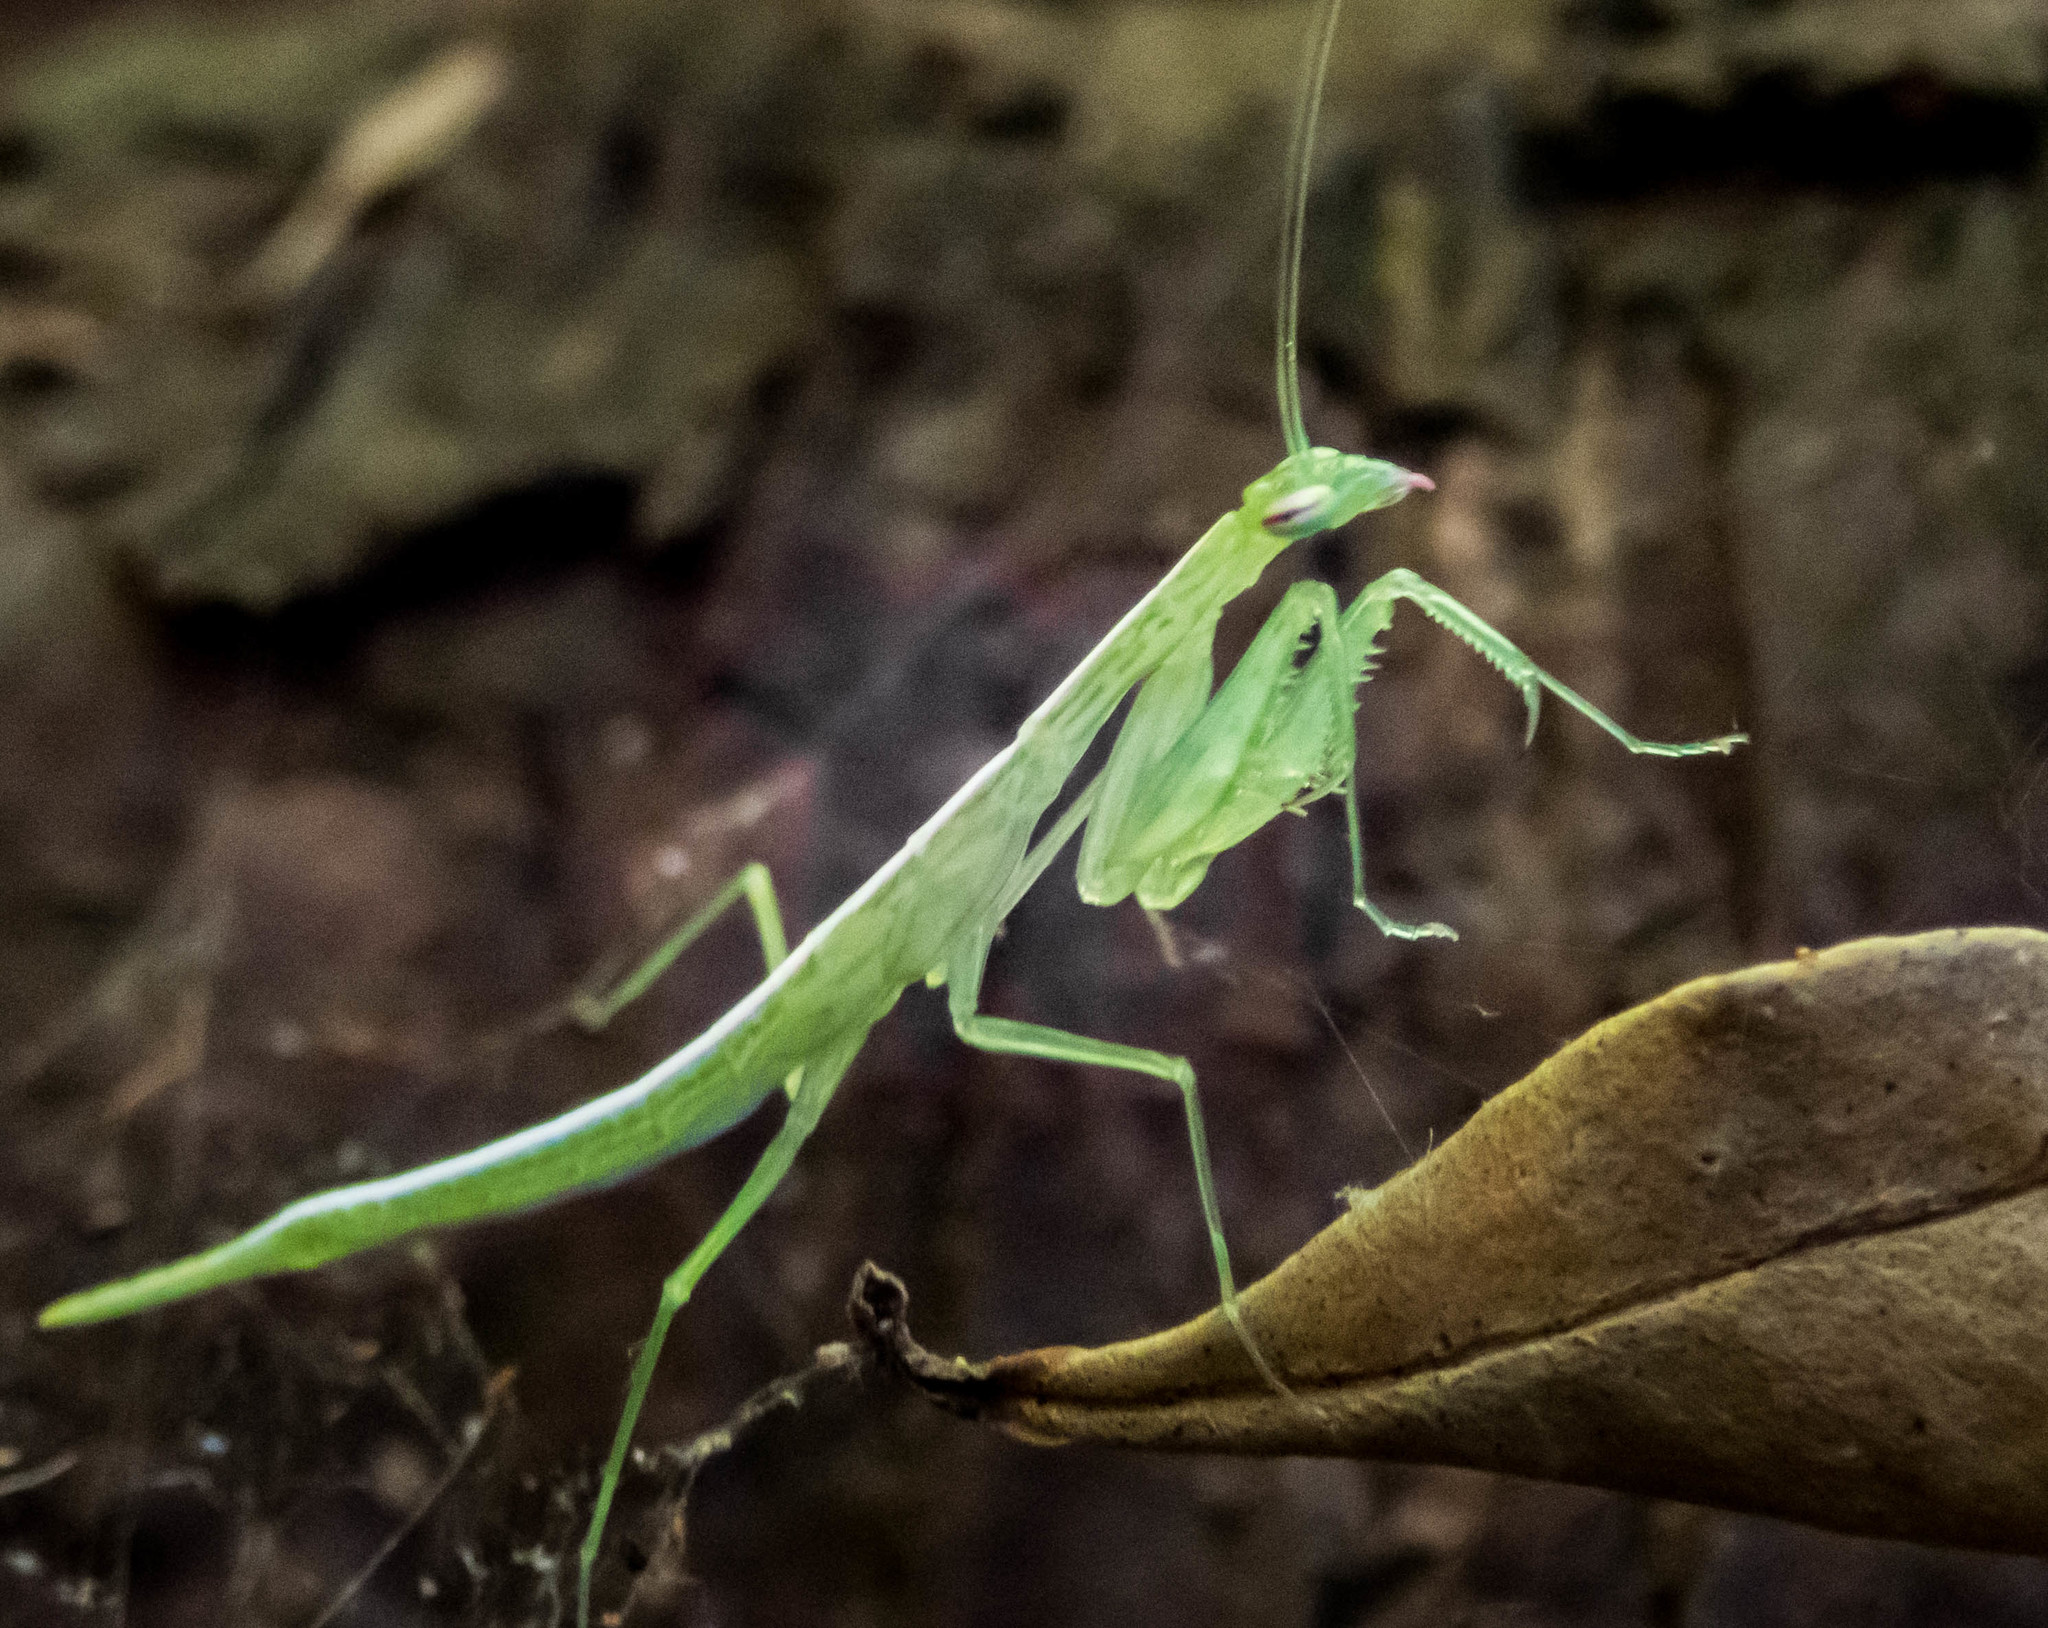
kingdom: Animalia
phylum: Arthropoda
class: Insecta
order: Mantodea
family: Nanomantidae
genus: Kongobatha
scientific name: Kongobatha diademata
